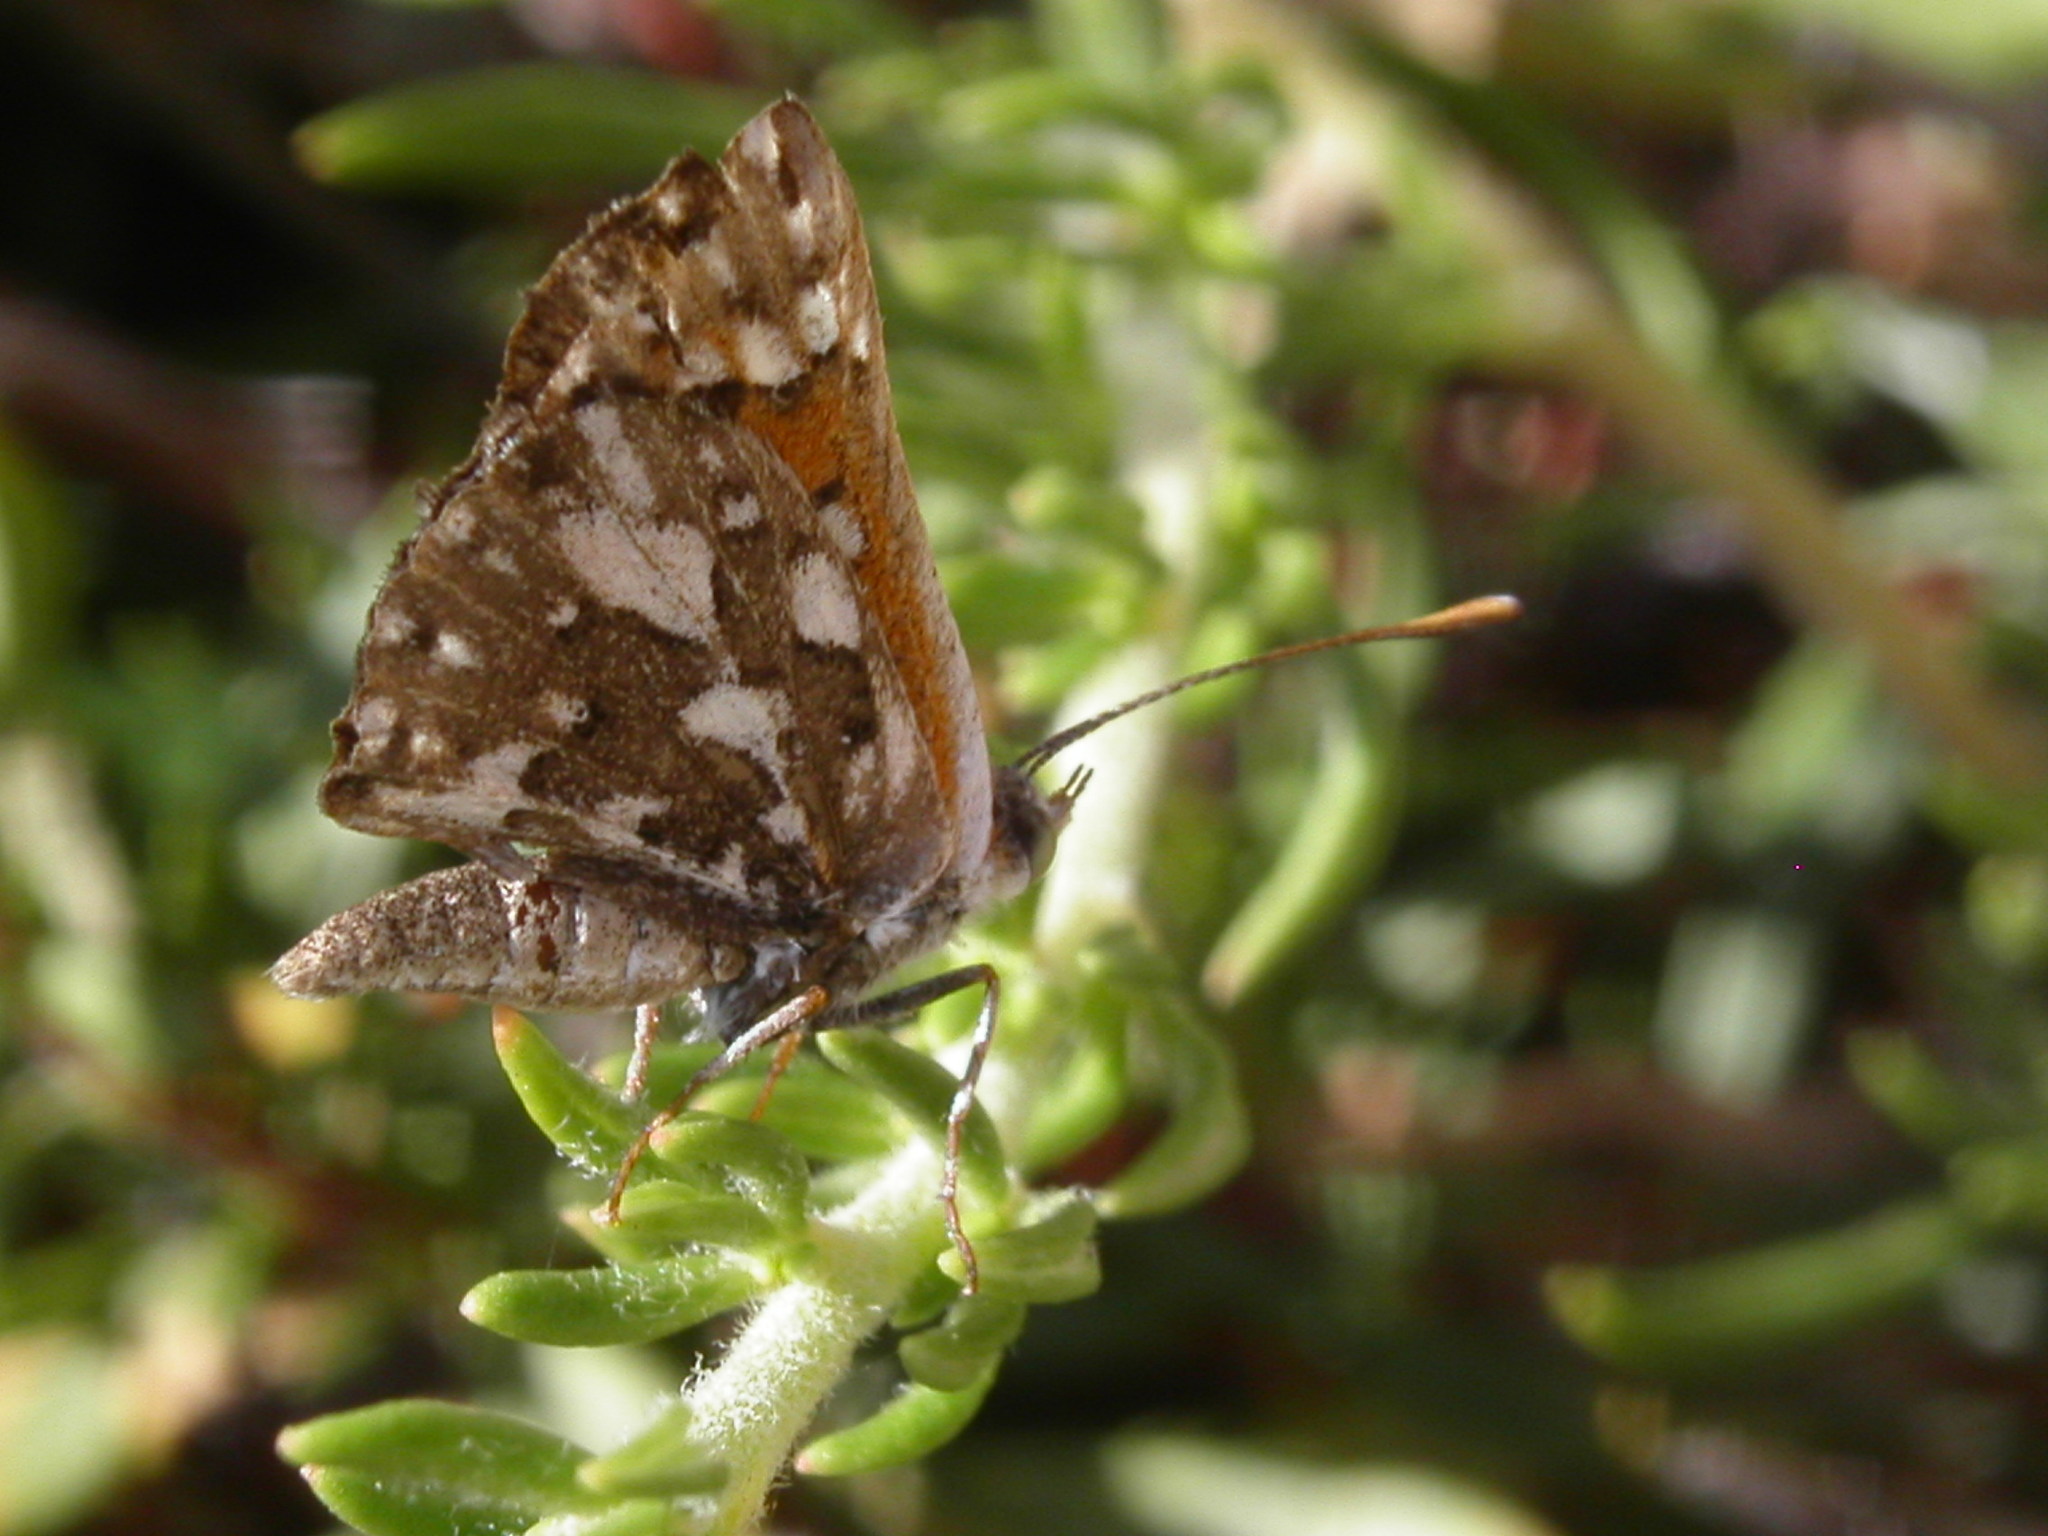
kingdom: Animalia
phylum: Arthropoda
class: Insecta
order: Lepidoptera
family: Riodinidae
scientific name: Riodinidae
